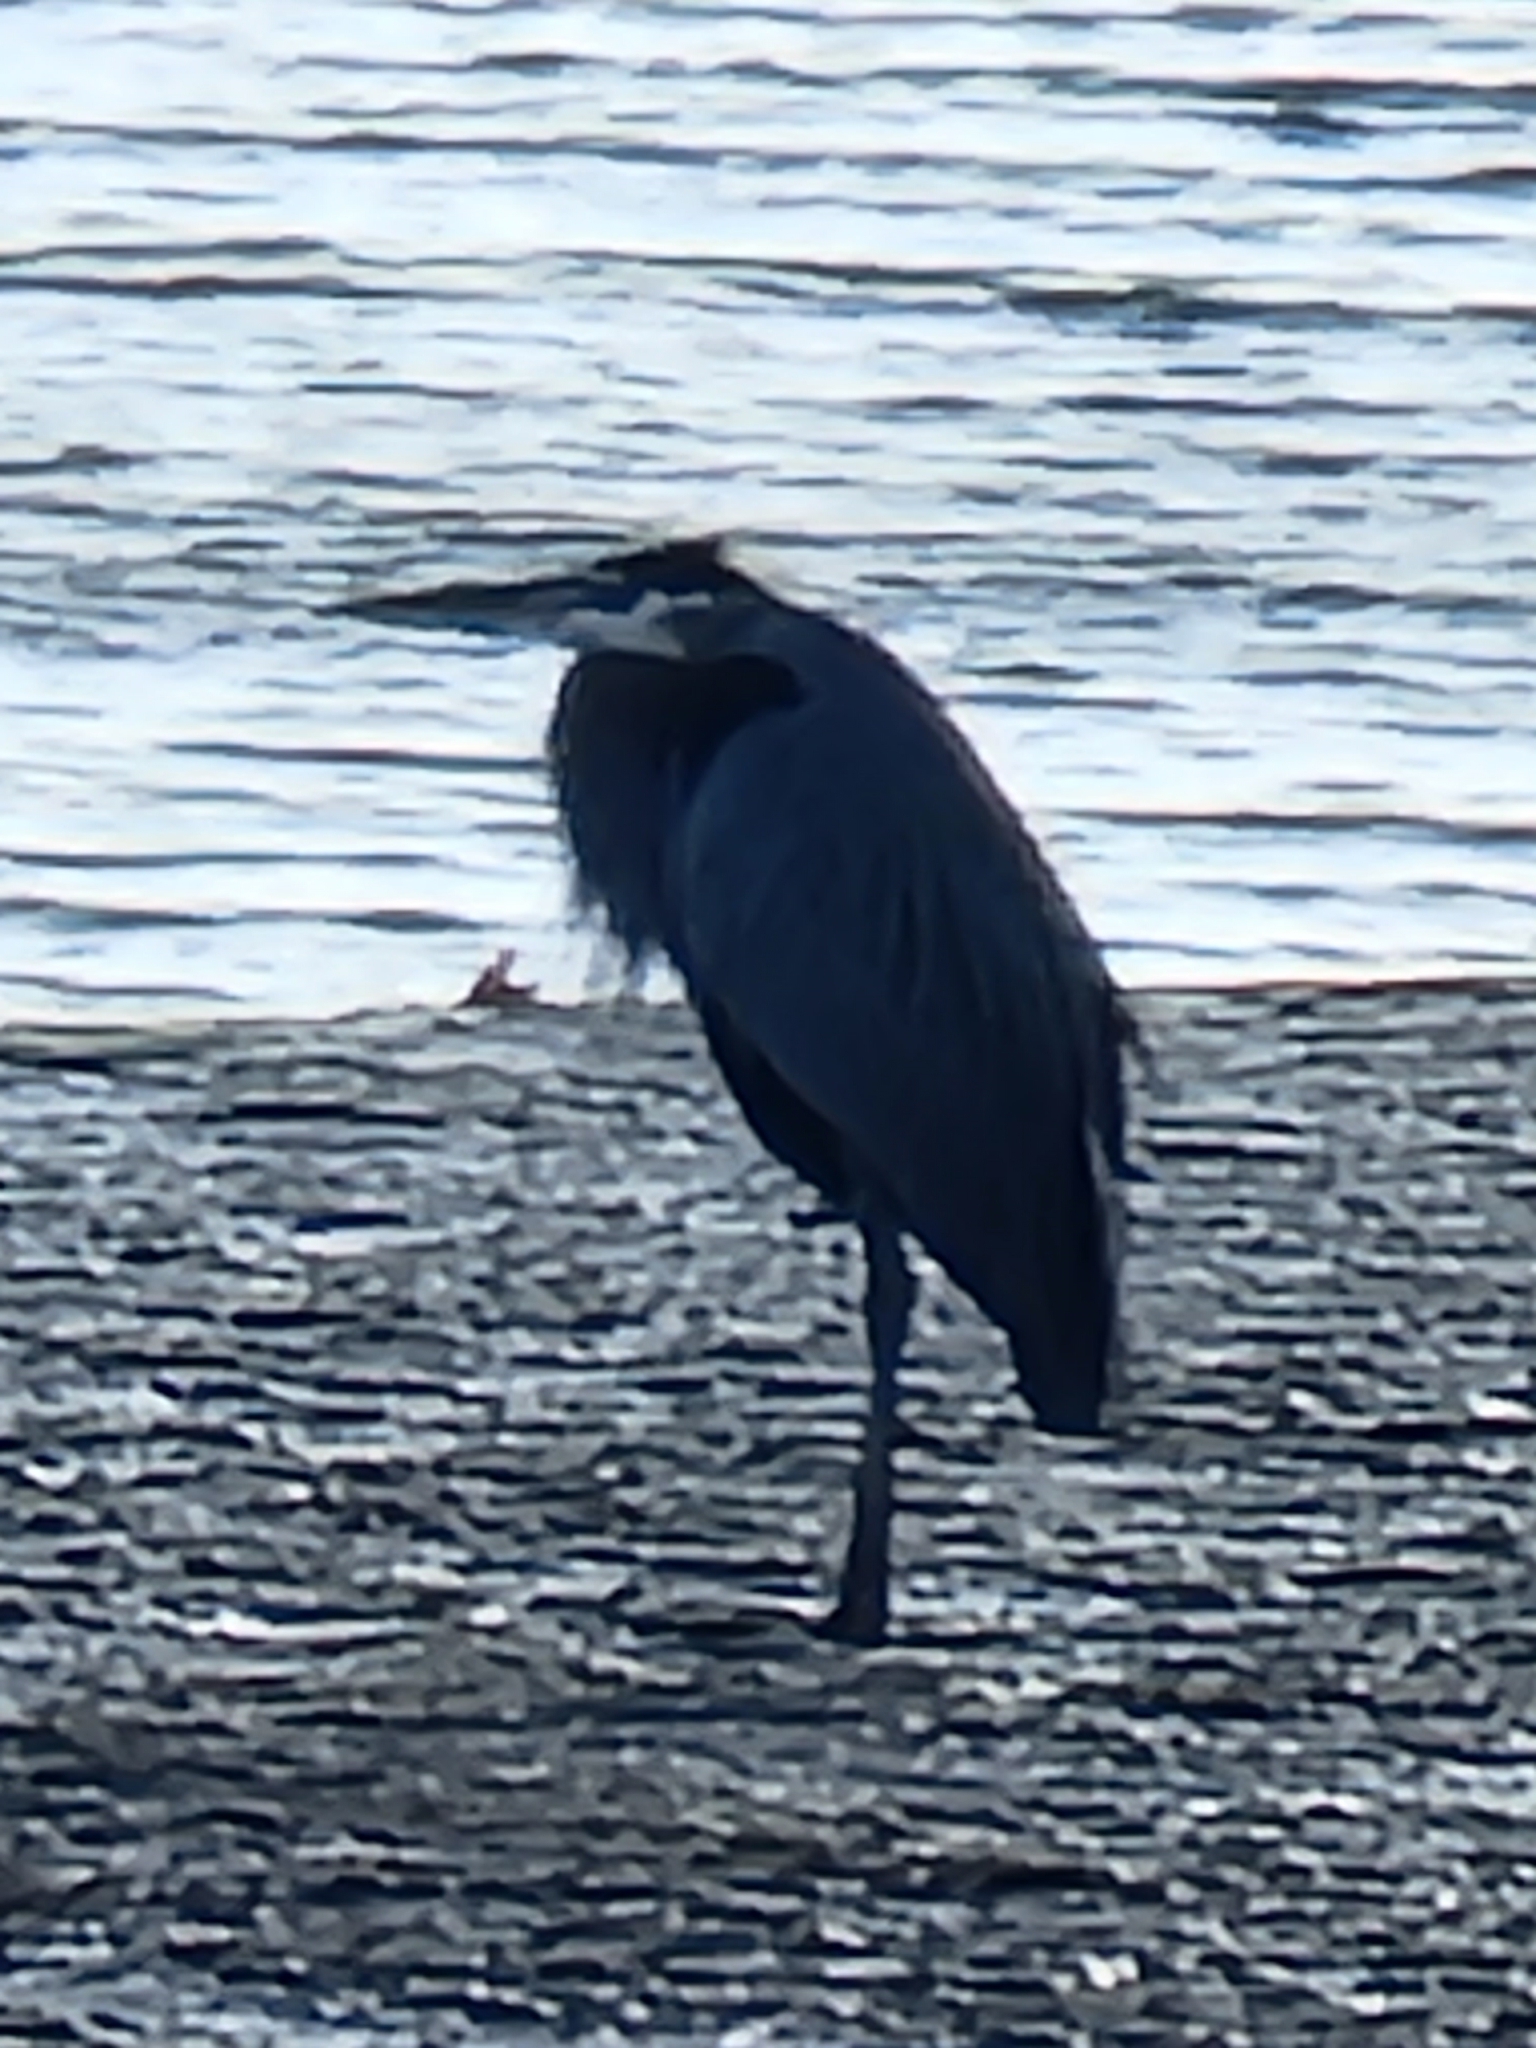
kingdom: Animalia
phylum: Chordata
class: Aves
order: Pelecaniformes
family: Ardeidae
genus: Ardea
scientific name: Ardea herodias
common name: Great blue heron
